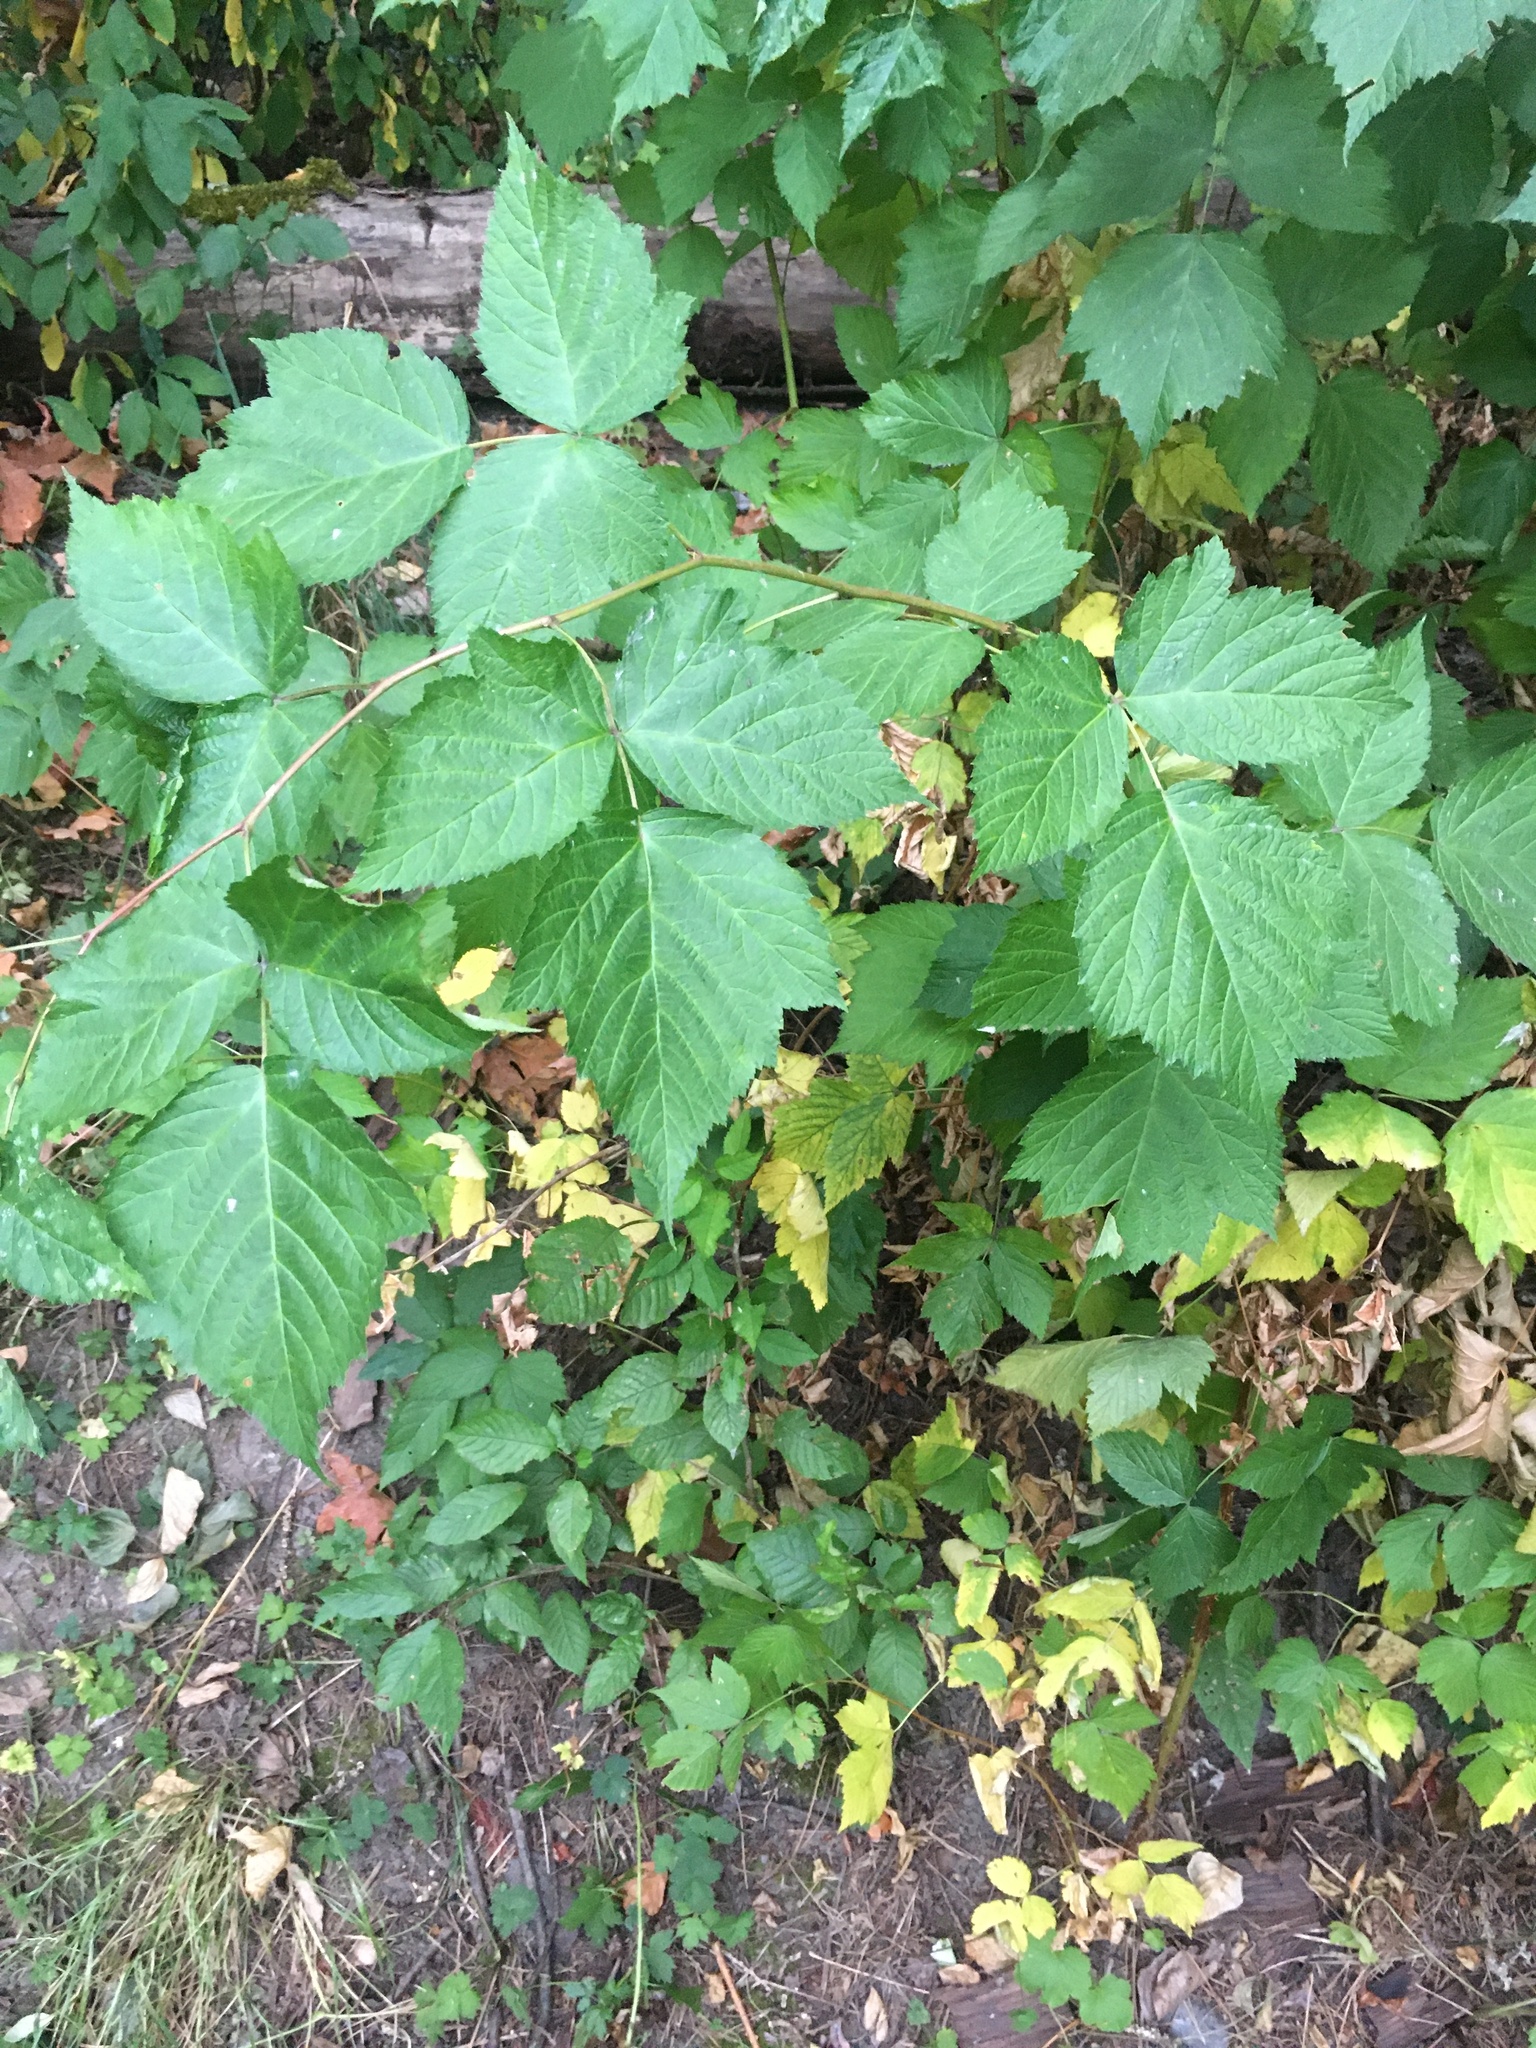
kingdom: Plantae
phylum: Tracheophyta
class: Magnoliopsida
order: Rosales
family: Rosaceae
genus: Rubus
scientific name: Rubus spectabilis
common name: Salmonberry
